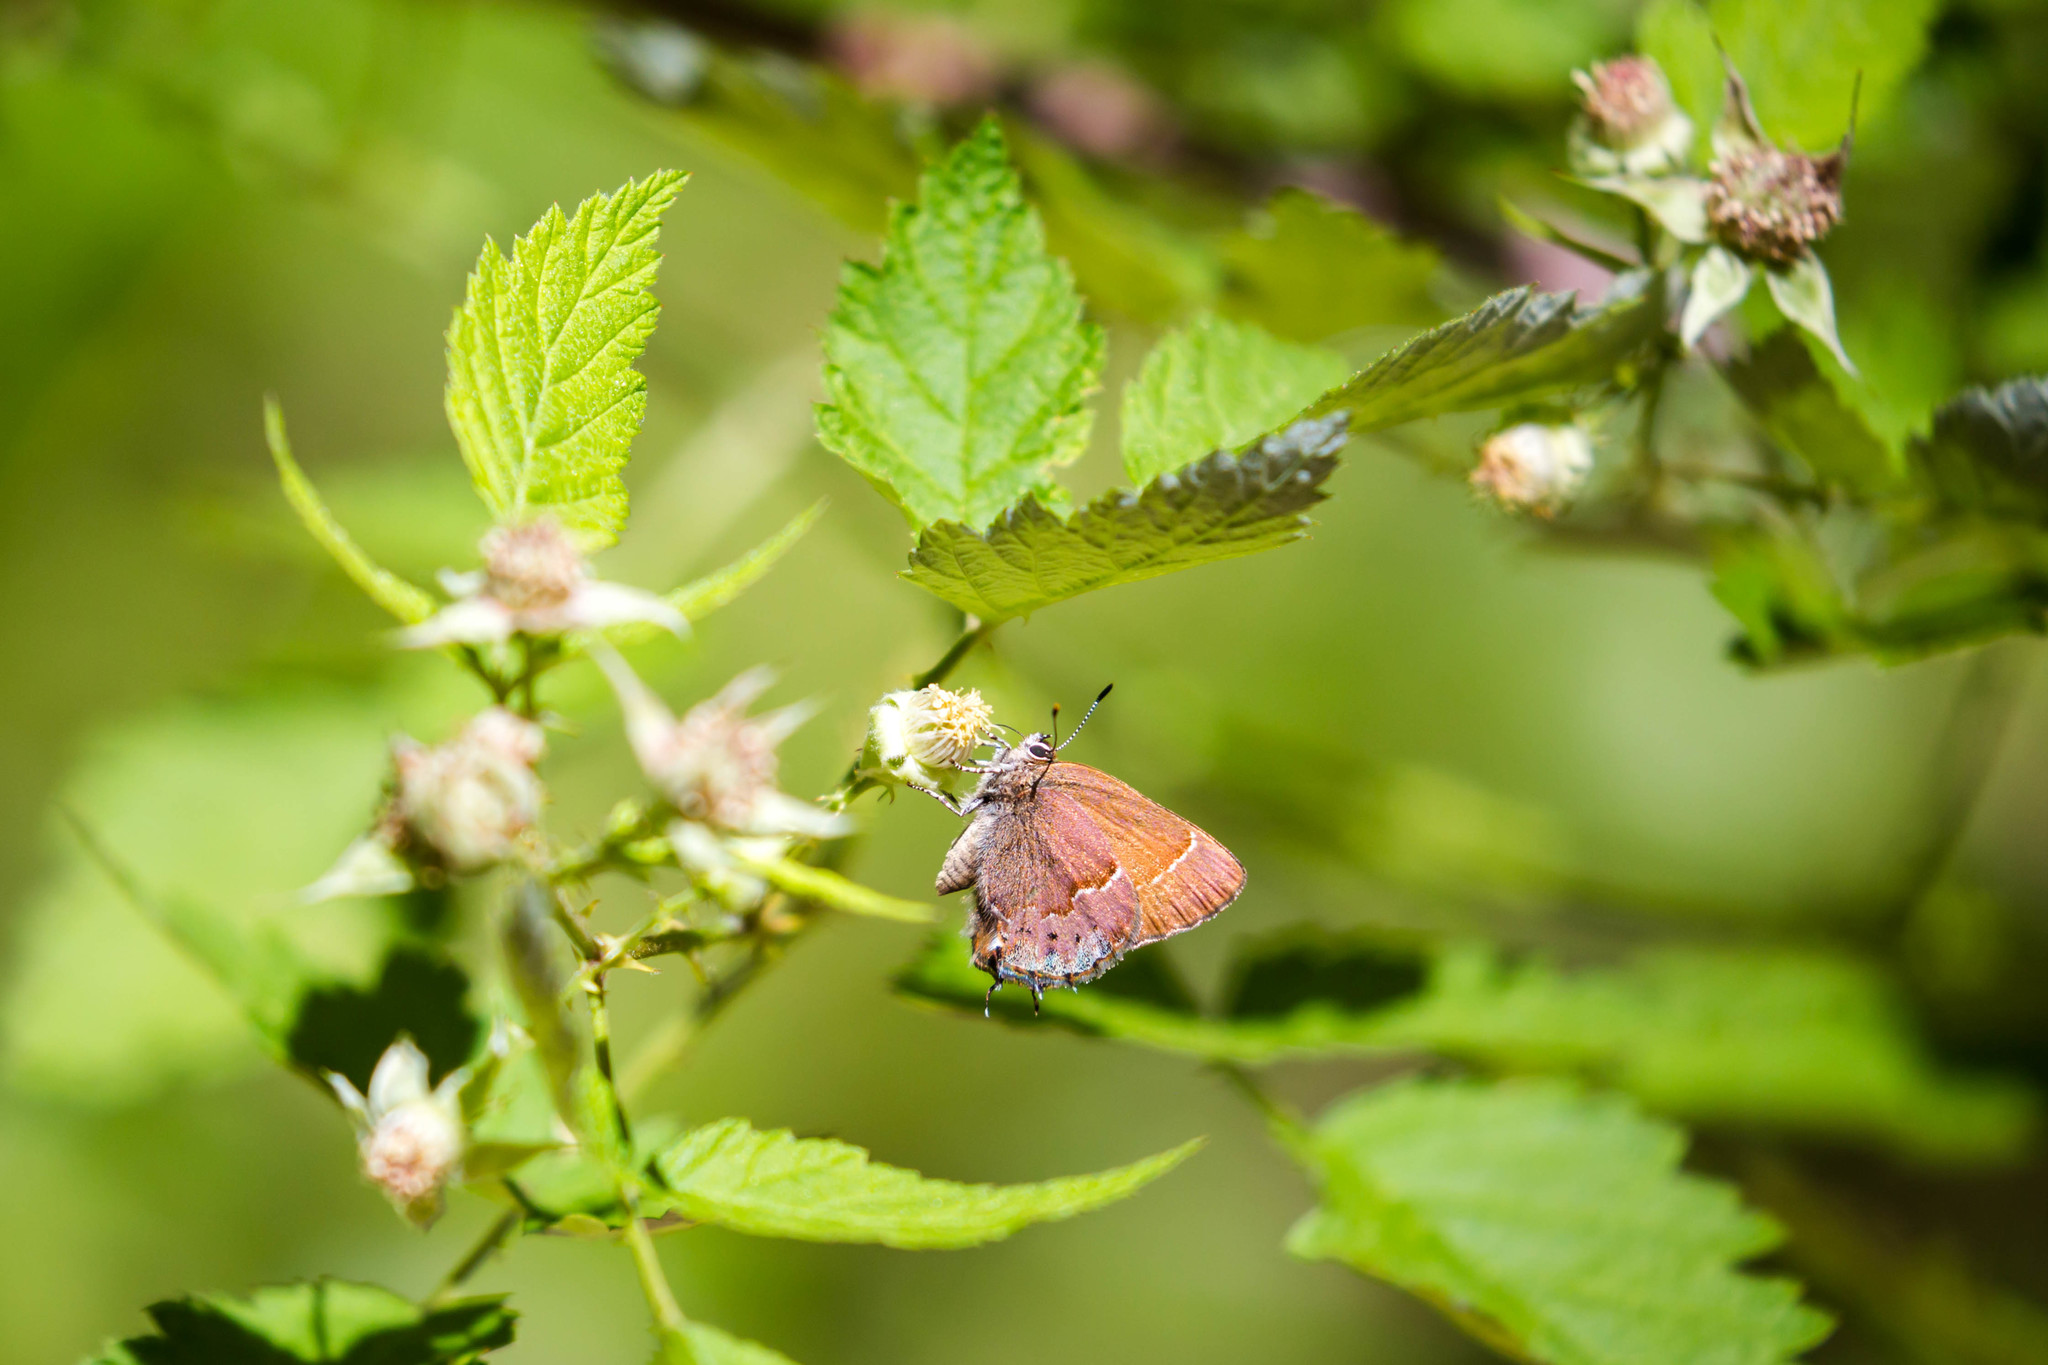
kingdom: Animalia
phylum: Arthropoda
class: Insecta
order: Lepidoptera
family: Lycaenidae
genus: Mitoura
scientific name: Mitoura gryneus
